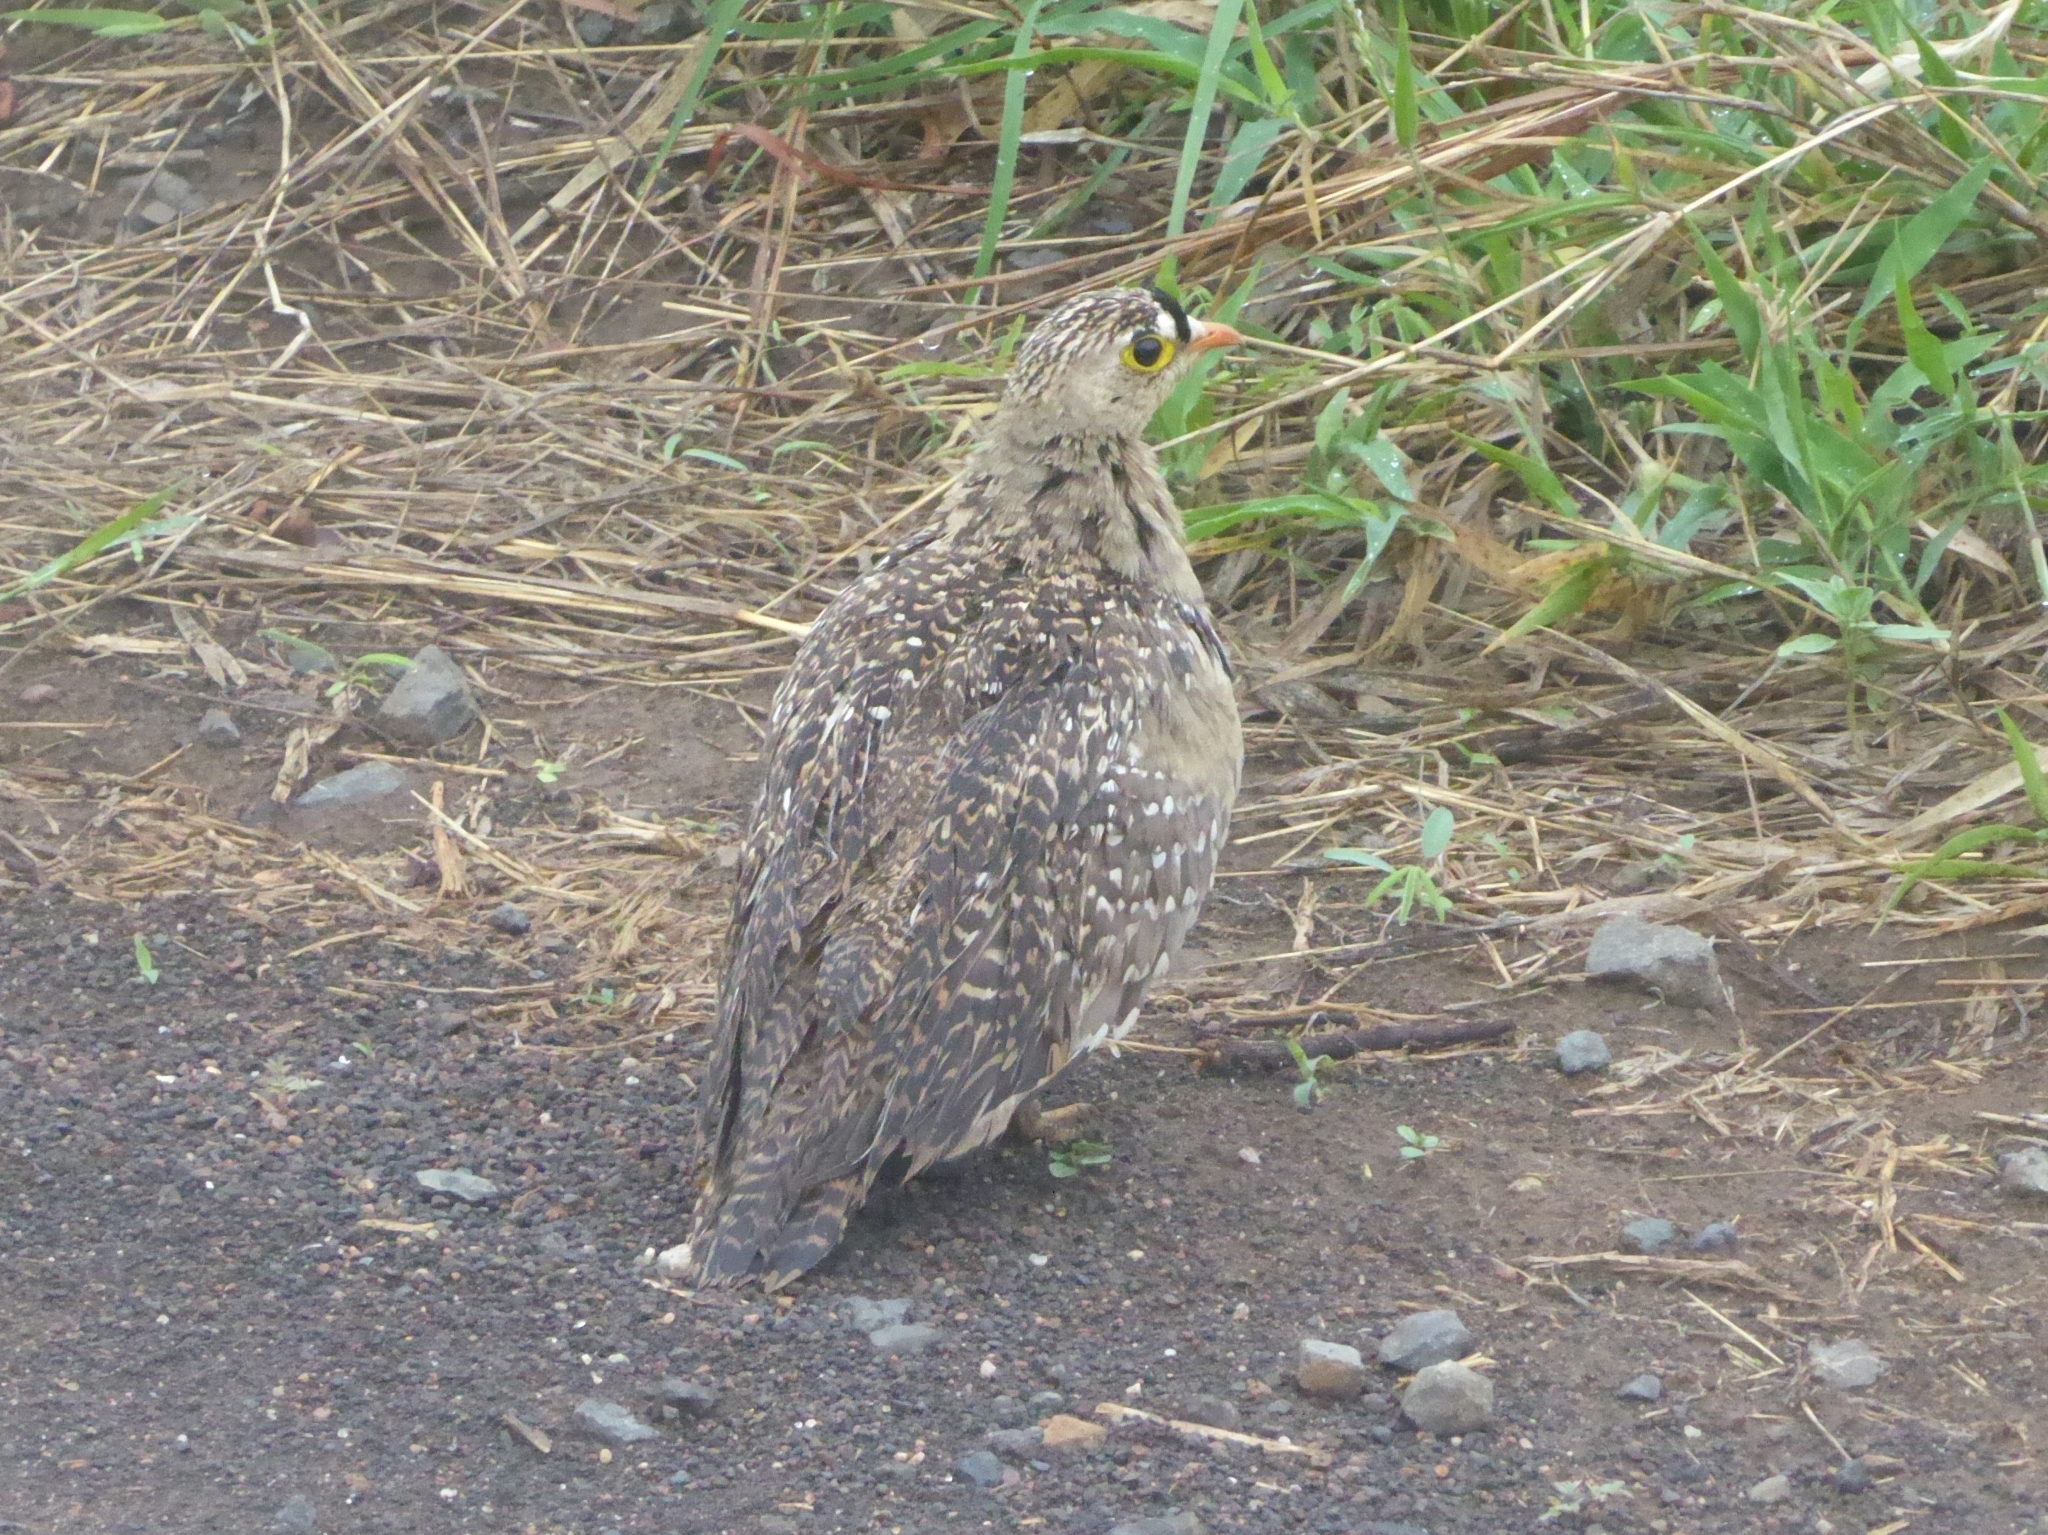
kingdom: Animalia
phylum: Chordata
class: Aves
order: Pteroclidiformes
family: Pteroclididae
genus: Pterocles
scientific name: Pterocles bicinctus
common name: Double-banded sandgrouse
